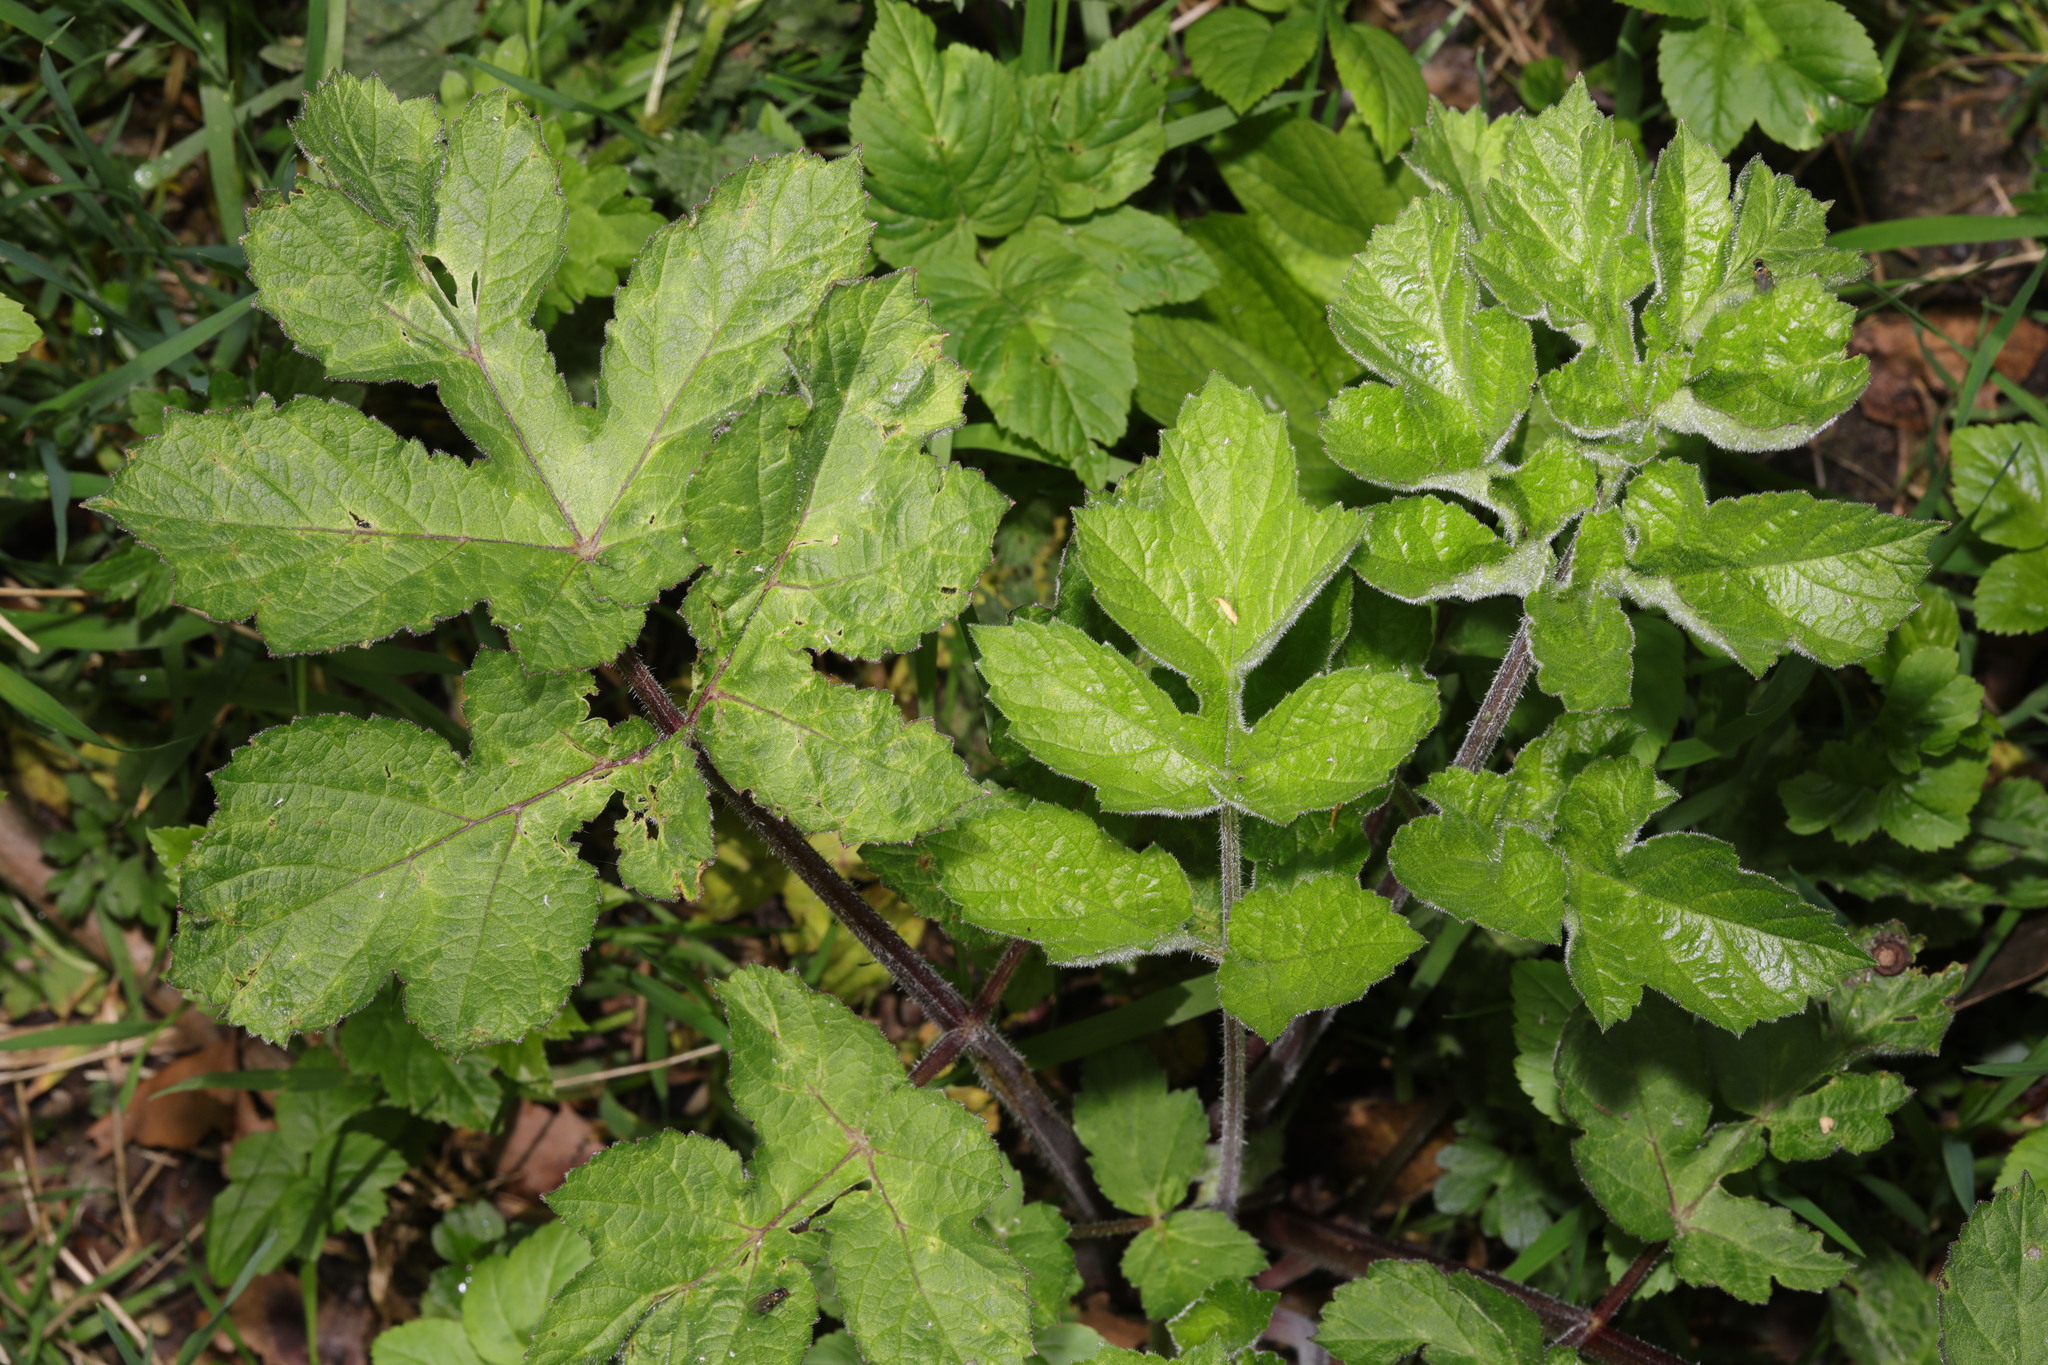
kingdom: Plantae
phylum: Tracheophyta
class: Magnoliopsida
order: Apiales
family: Apiaceae
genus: Heracleum
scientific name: Heracleum sphondylium
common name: Hogweed
